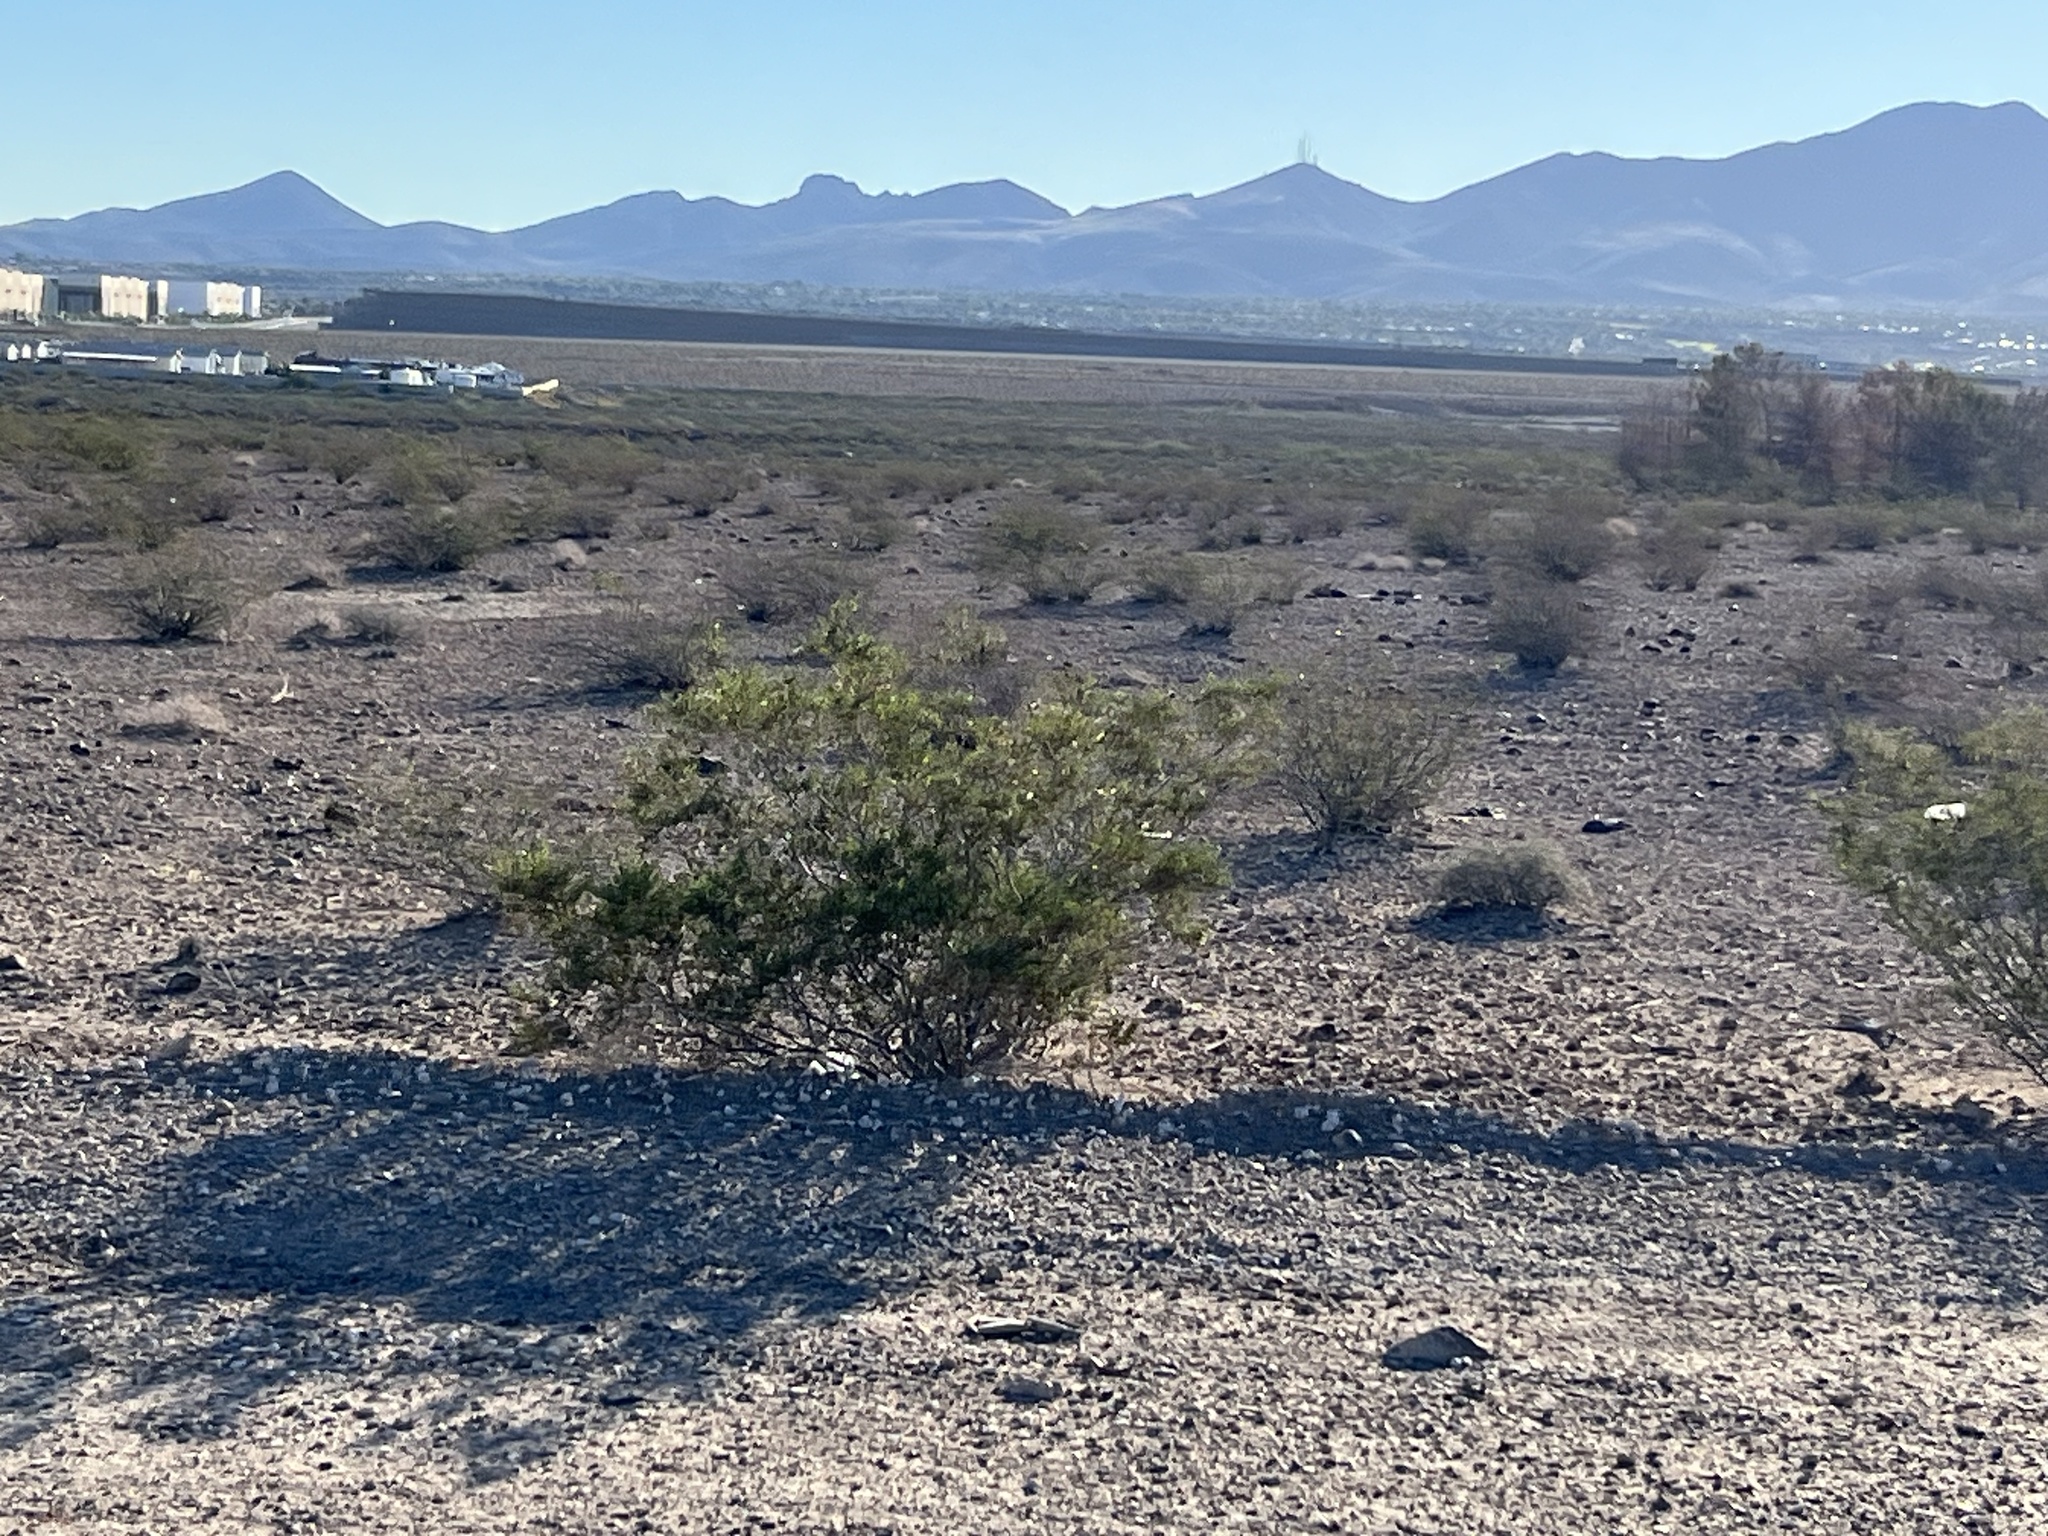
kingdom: Plantae
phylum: Tracheophyta
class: Magnoliopsida
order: Zygophyllales
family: Zygophyllaceae
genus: Larrea
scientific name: Larrea tridentata
